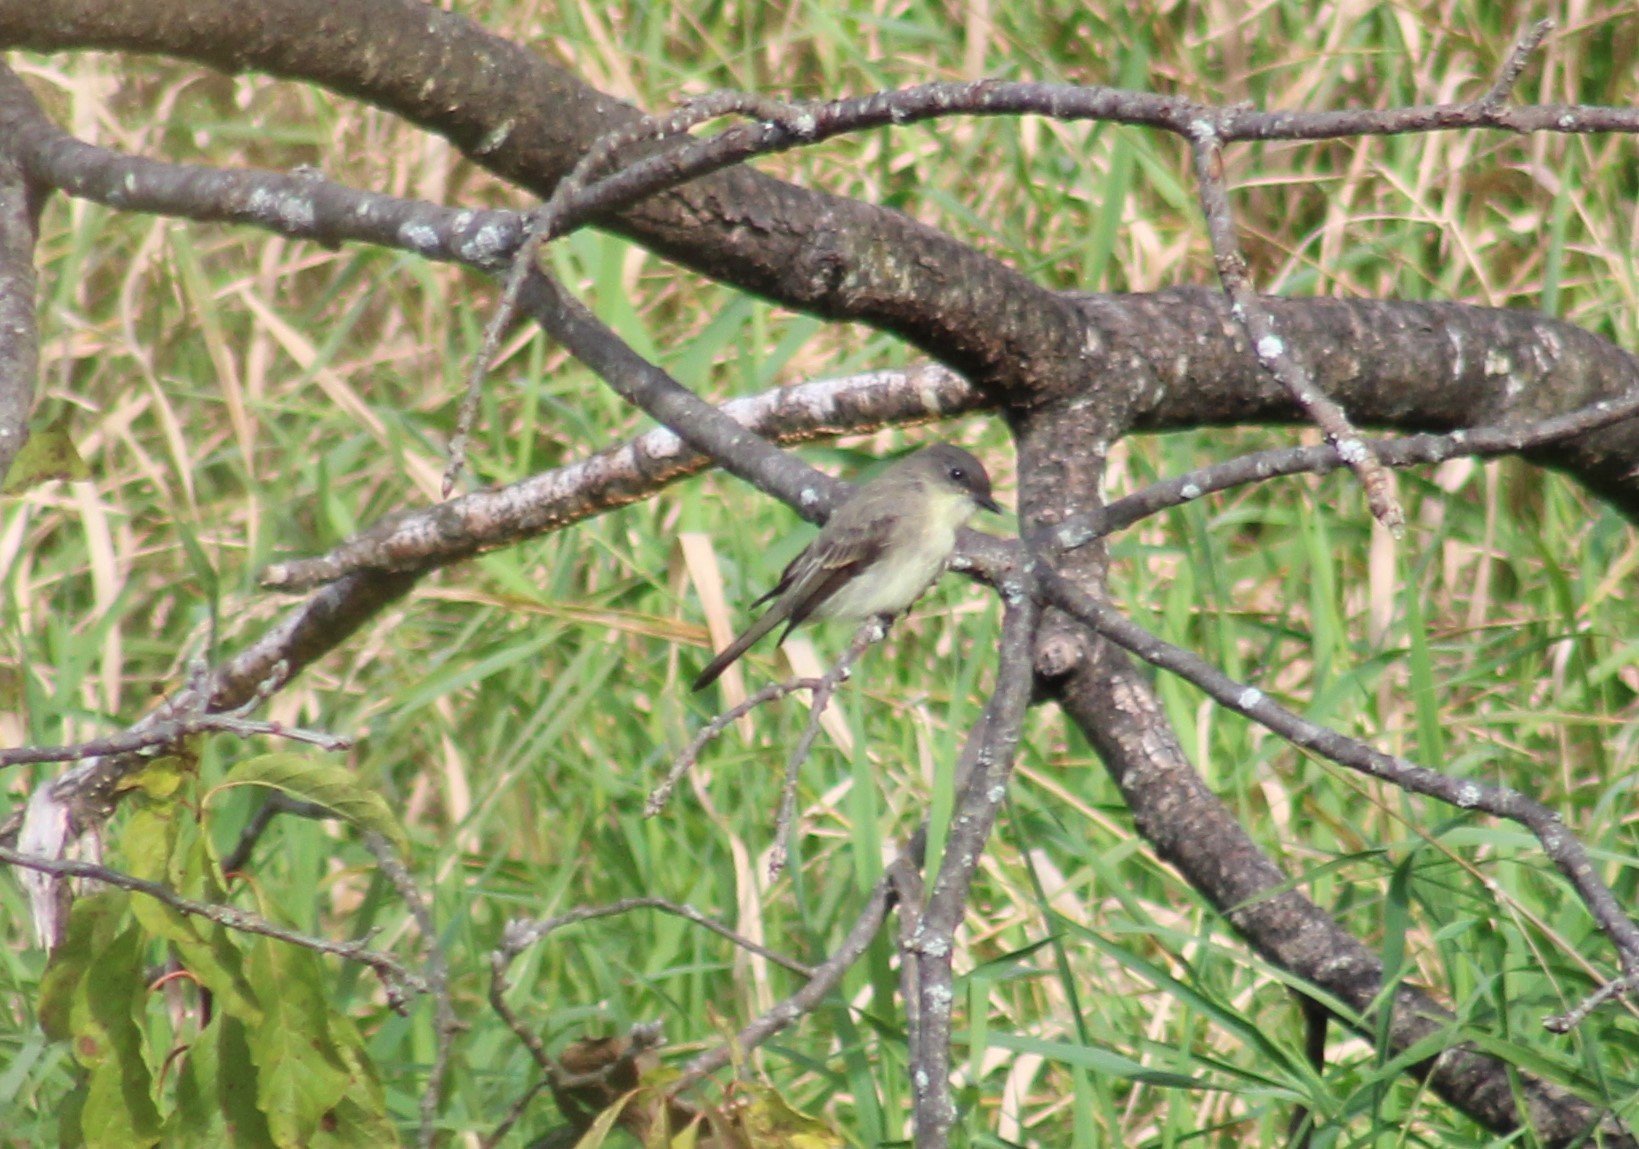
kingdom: Animalia
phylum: Chordata
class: Aves
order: Passeriformes
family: Tyrannidae
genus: Sayornis
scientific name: Sayornis phoebe
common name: Eastern phoebe
